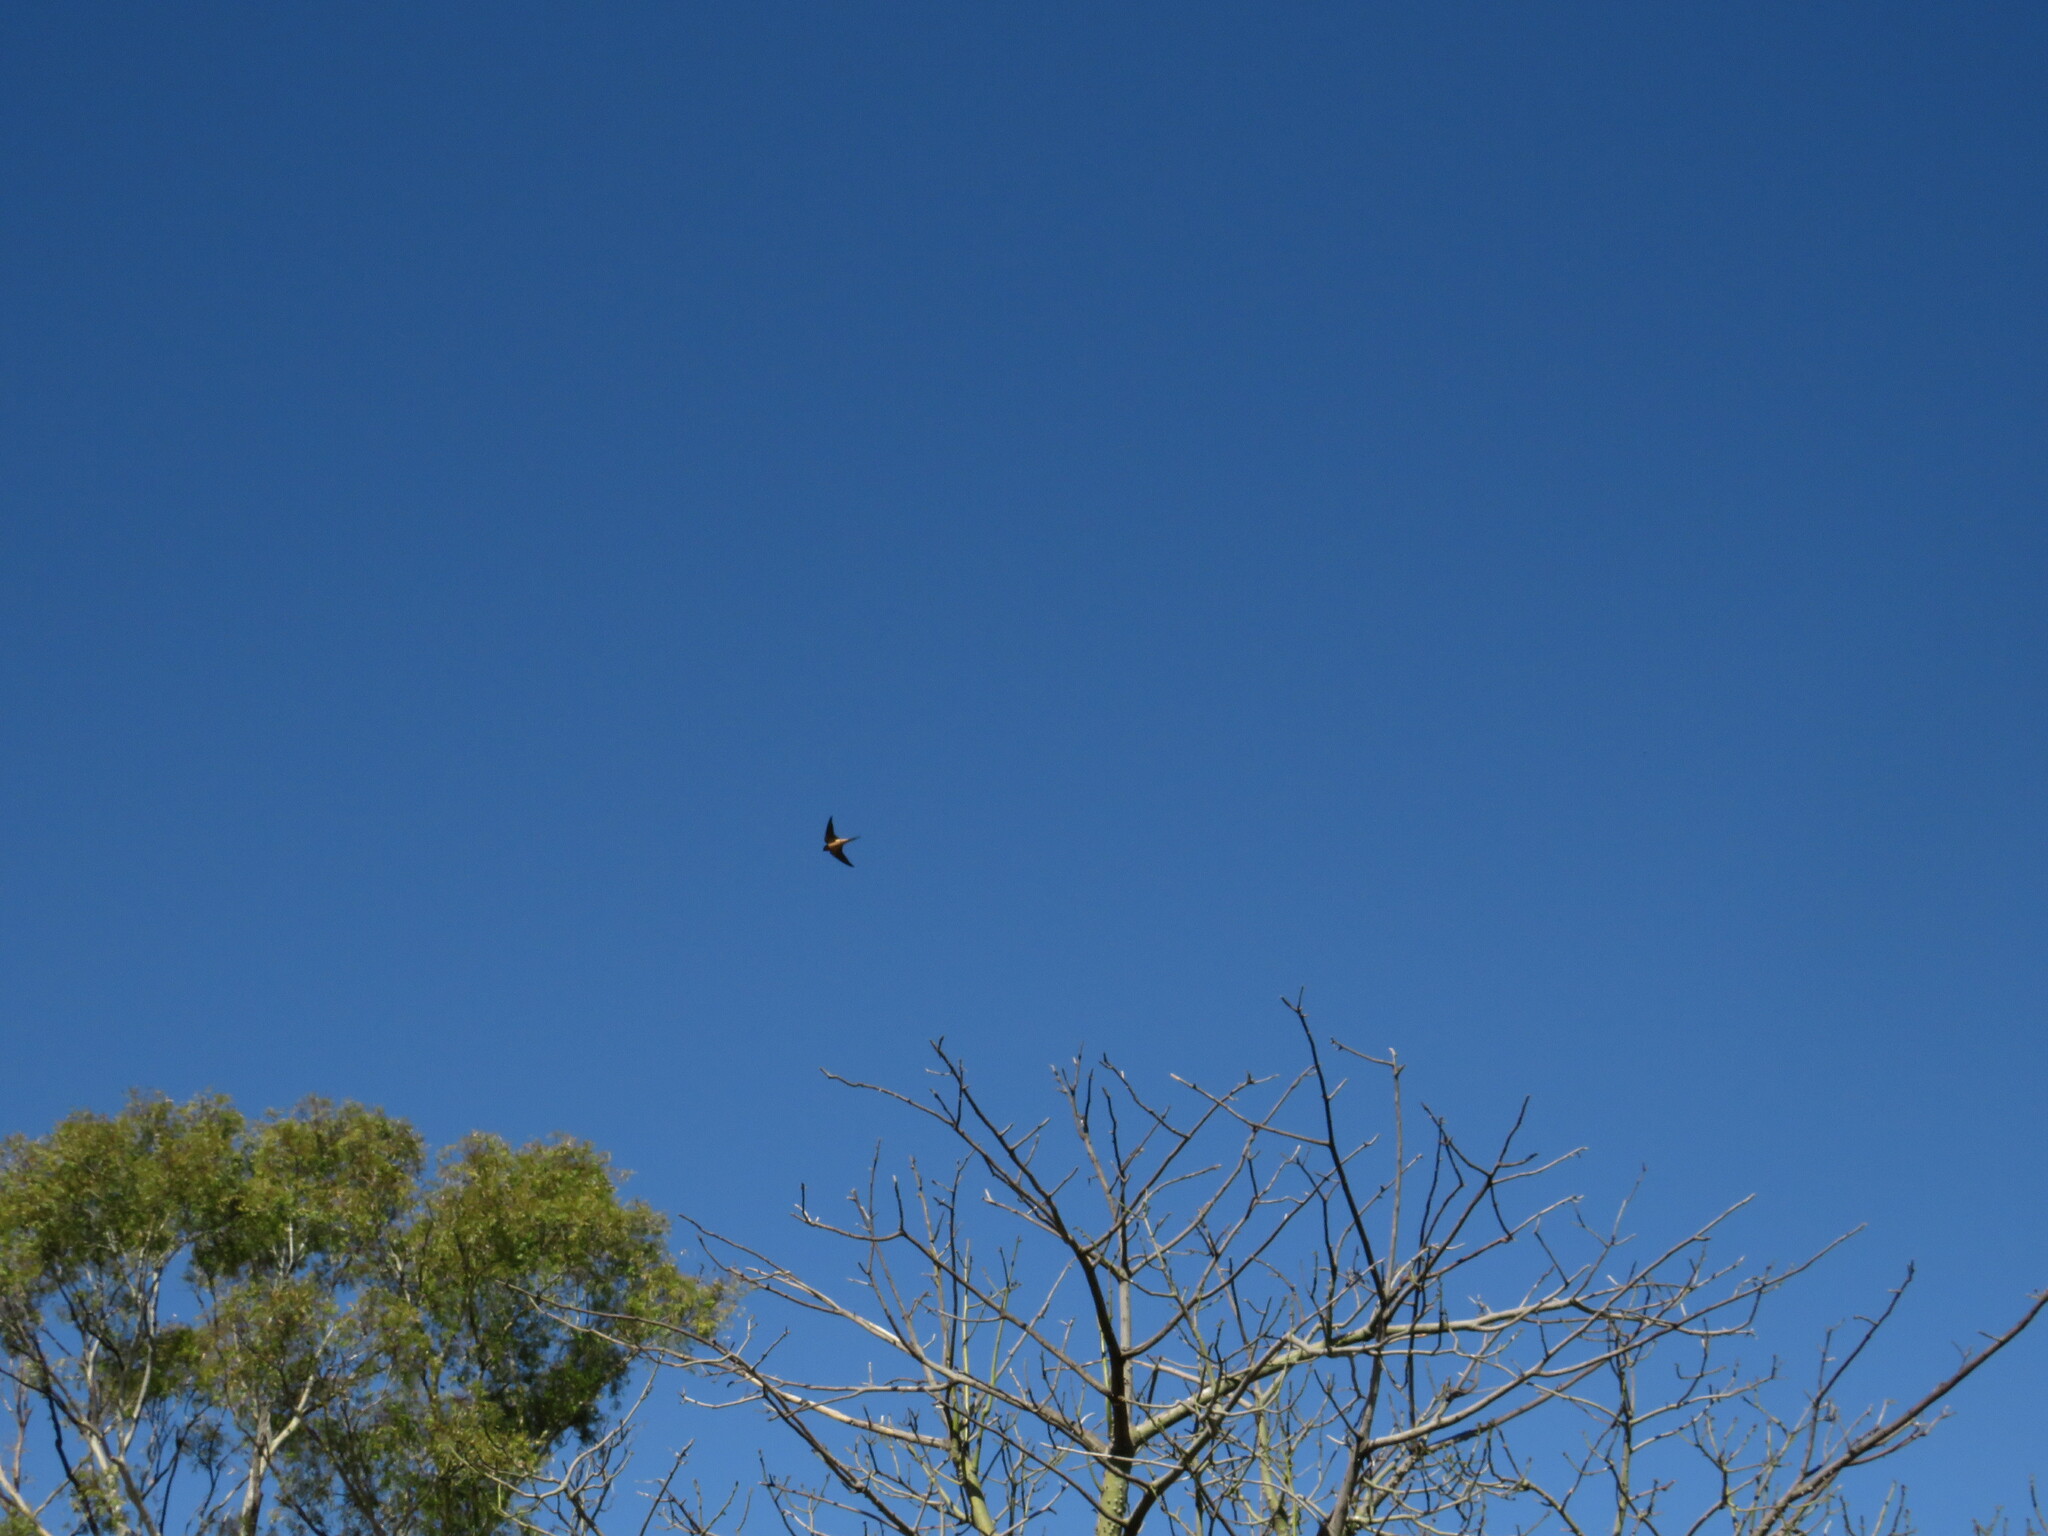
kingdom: Animalia
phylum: Chordata
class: Aves
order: Passeriformes
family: Hirundinidae
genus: Hirundo
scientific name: Hirundo rustica
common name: Barn swallow
